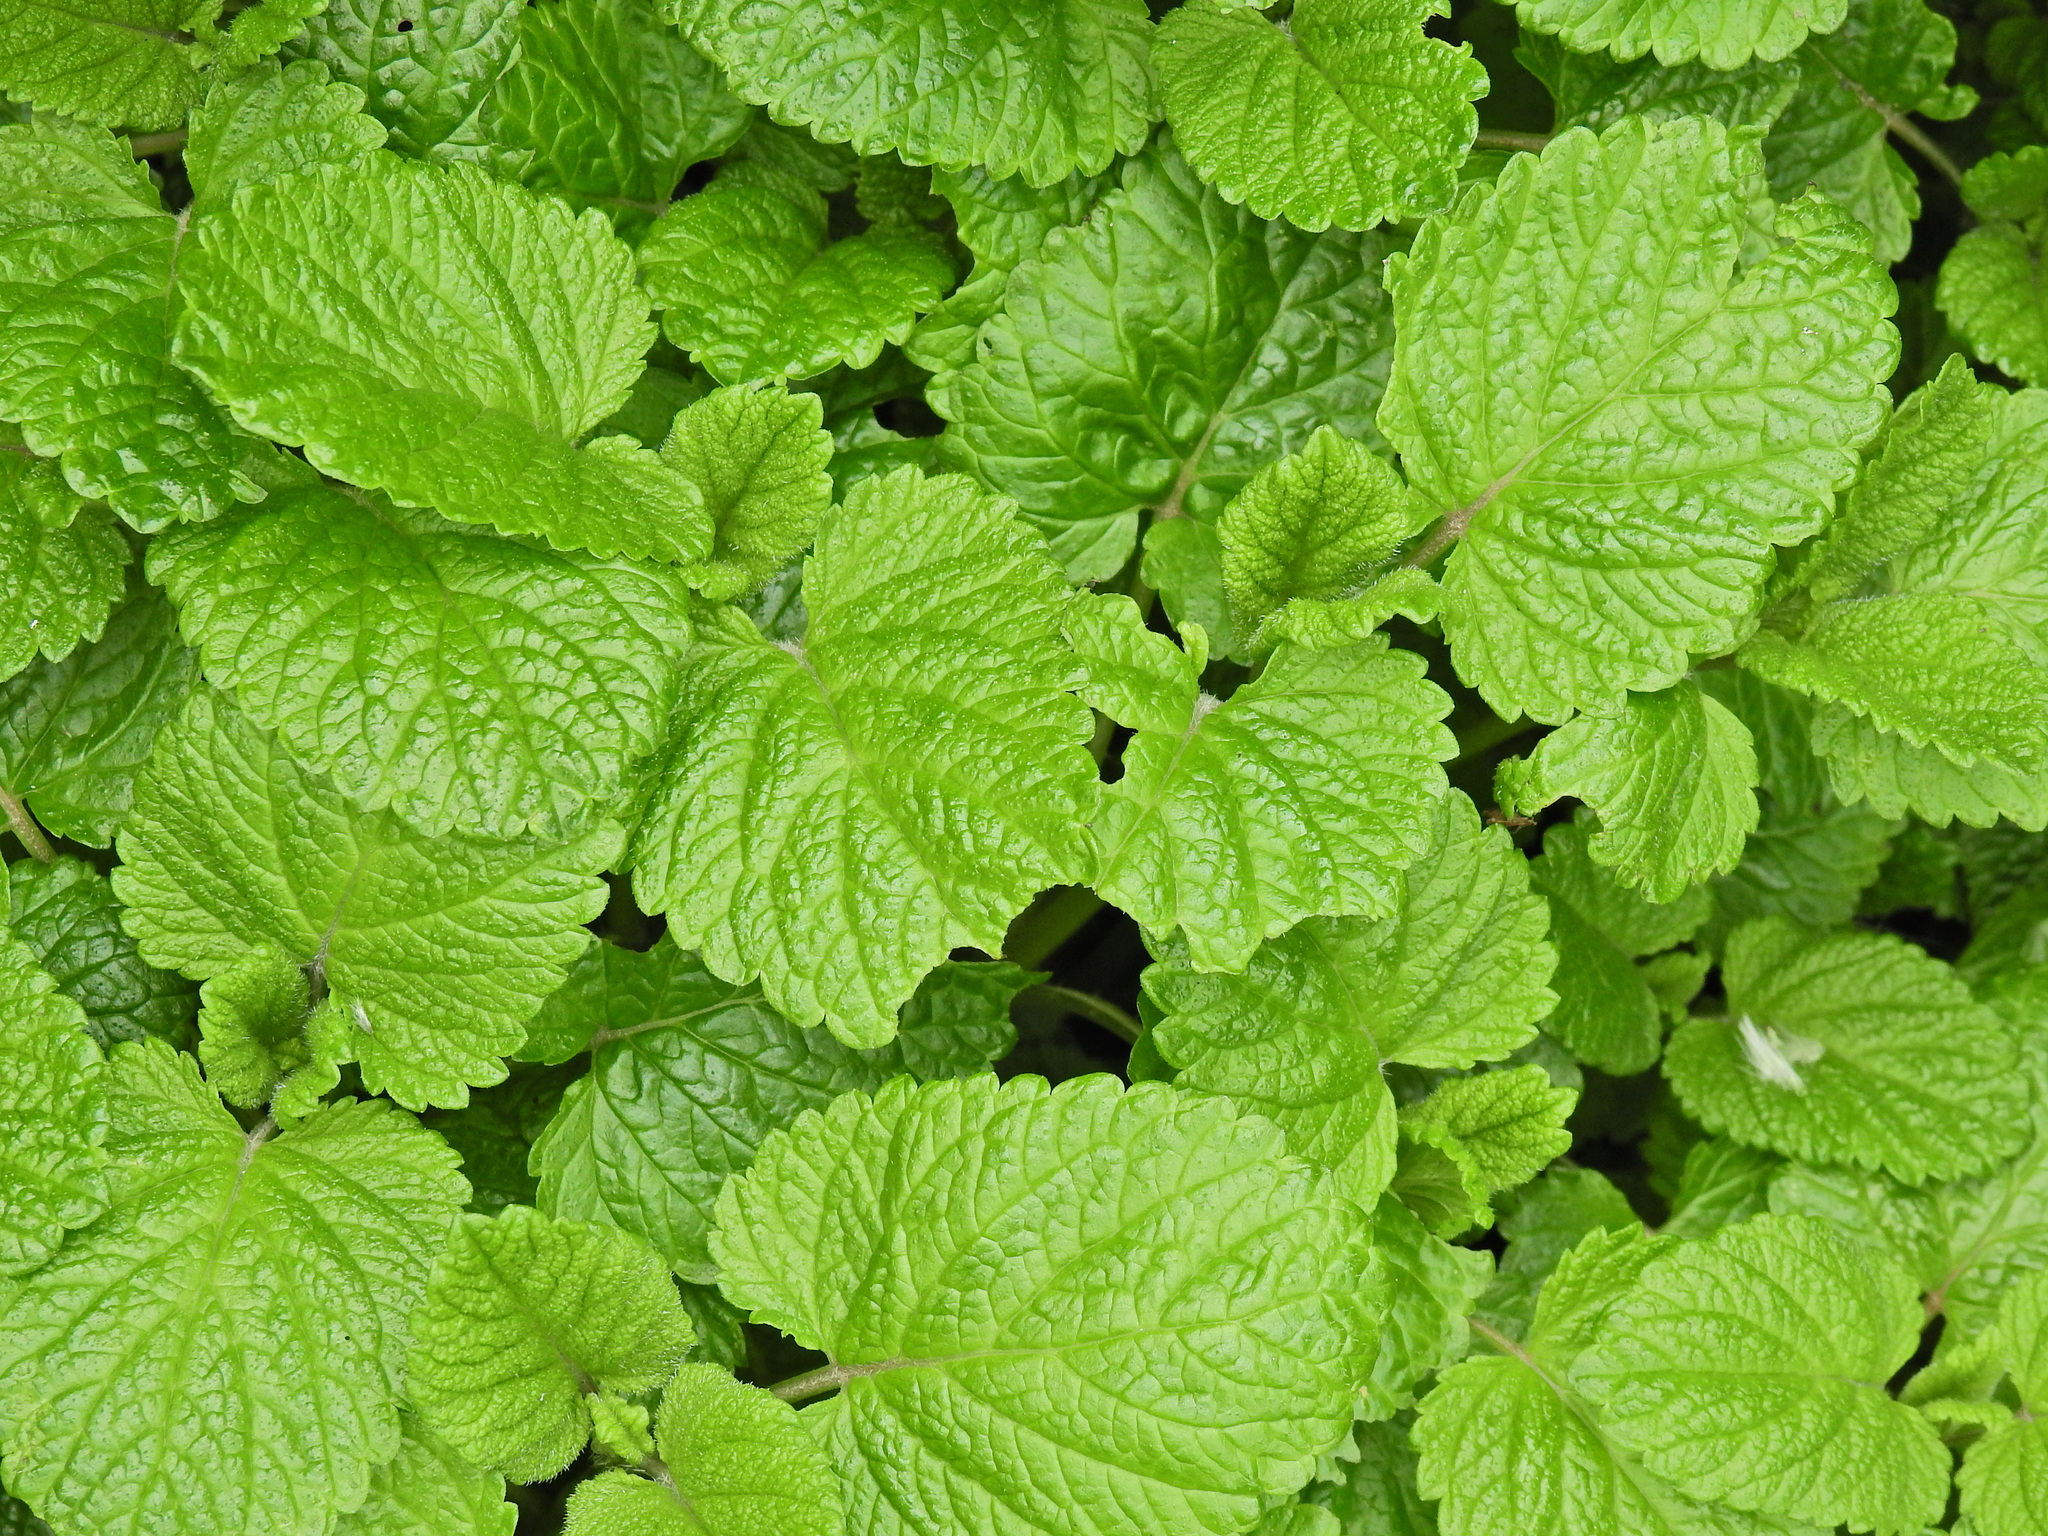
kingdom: Plantae
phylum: Tracheophyta
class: Magnoliopsida
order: Lamiales
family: Lamiaceae
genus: Melissa
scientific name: Melissa officinalis
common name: Balm
